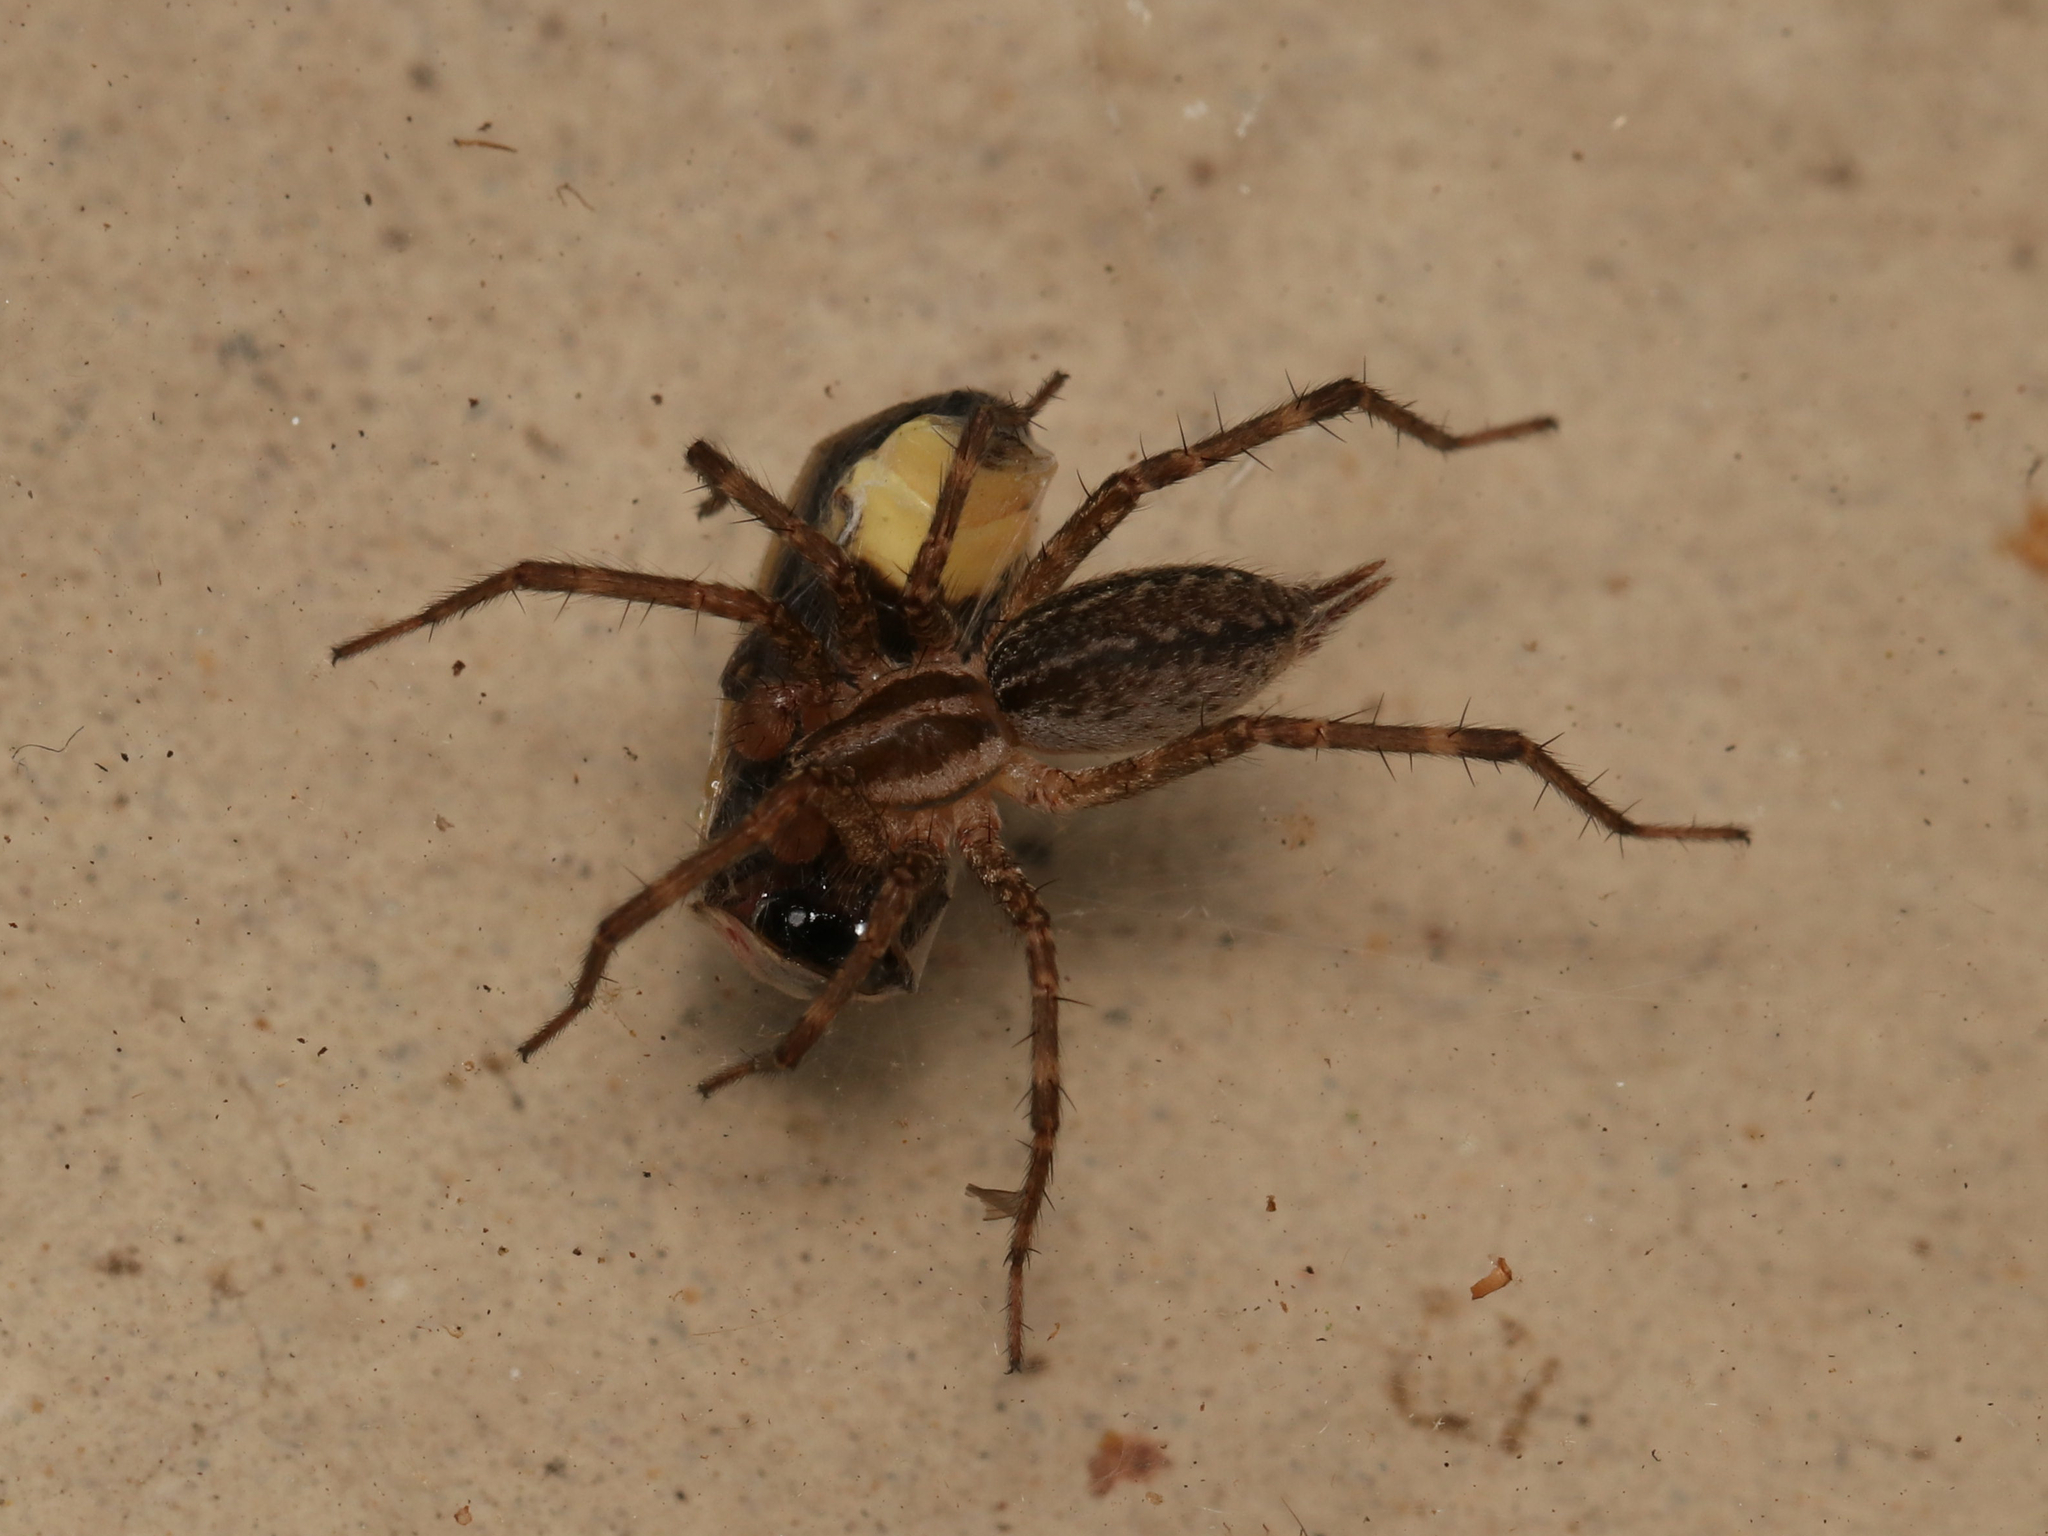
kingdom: Animalia
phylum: Arthropoda
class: Arachnida
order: Araneae
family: Agelenidae
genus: Agelenopsis
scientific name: Agelenopsis
